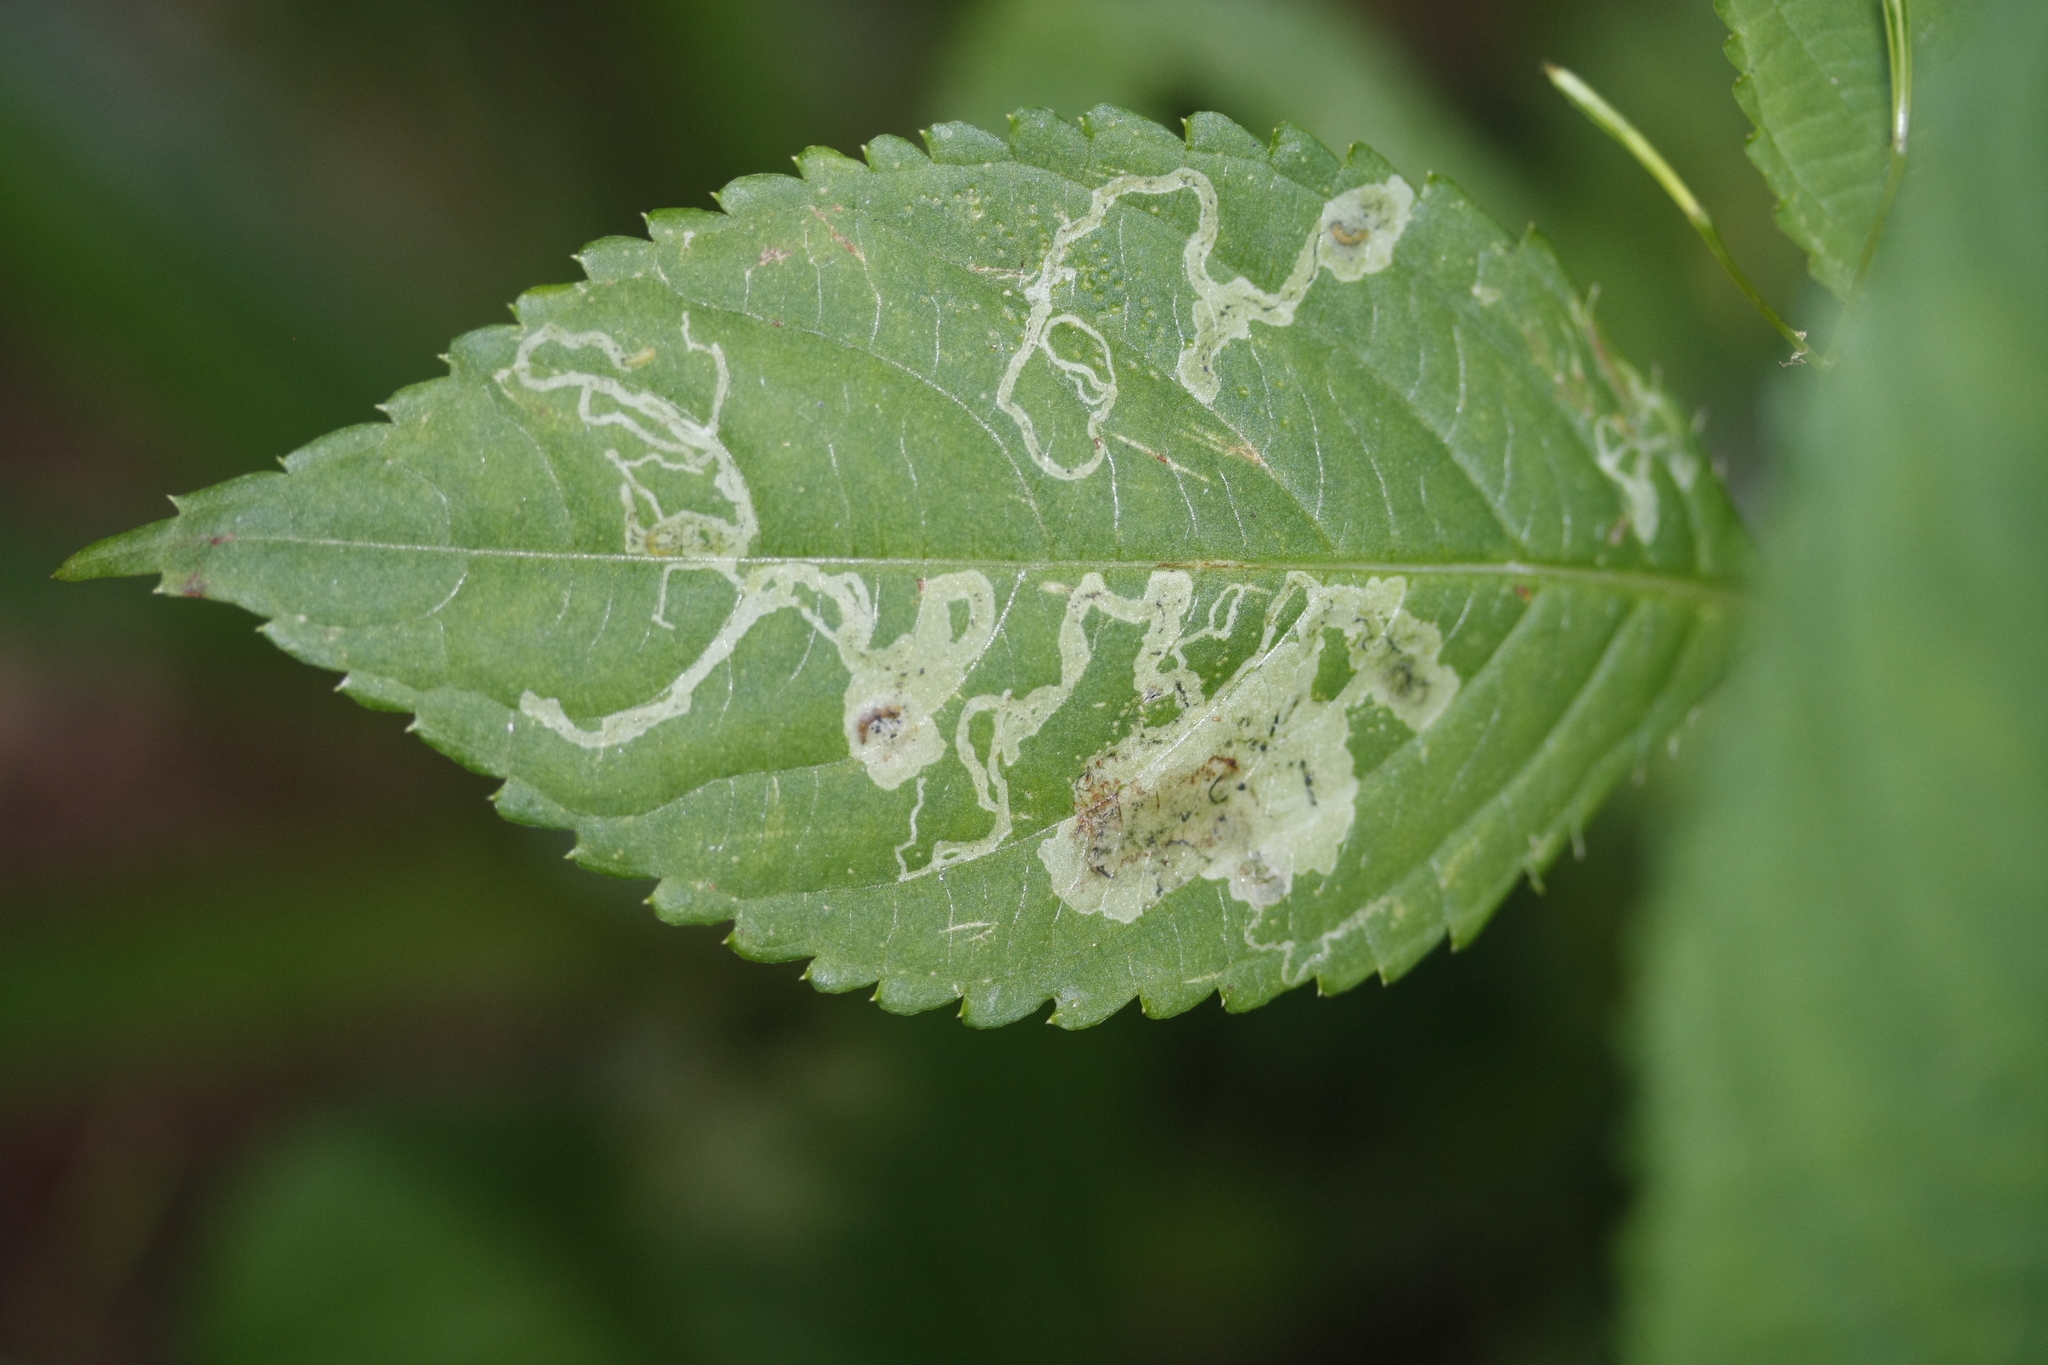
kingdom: Animalia
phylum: Arthropoda
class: Insecta
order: Diptera
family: Agromyzidae
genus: Phytoliriomyza
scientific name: Phytoliriomyza melampyga
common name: Jewelweed leaf-miner fly
